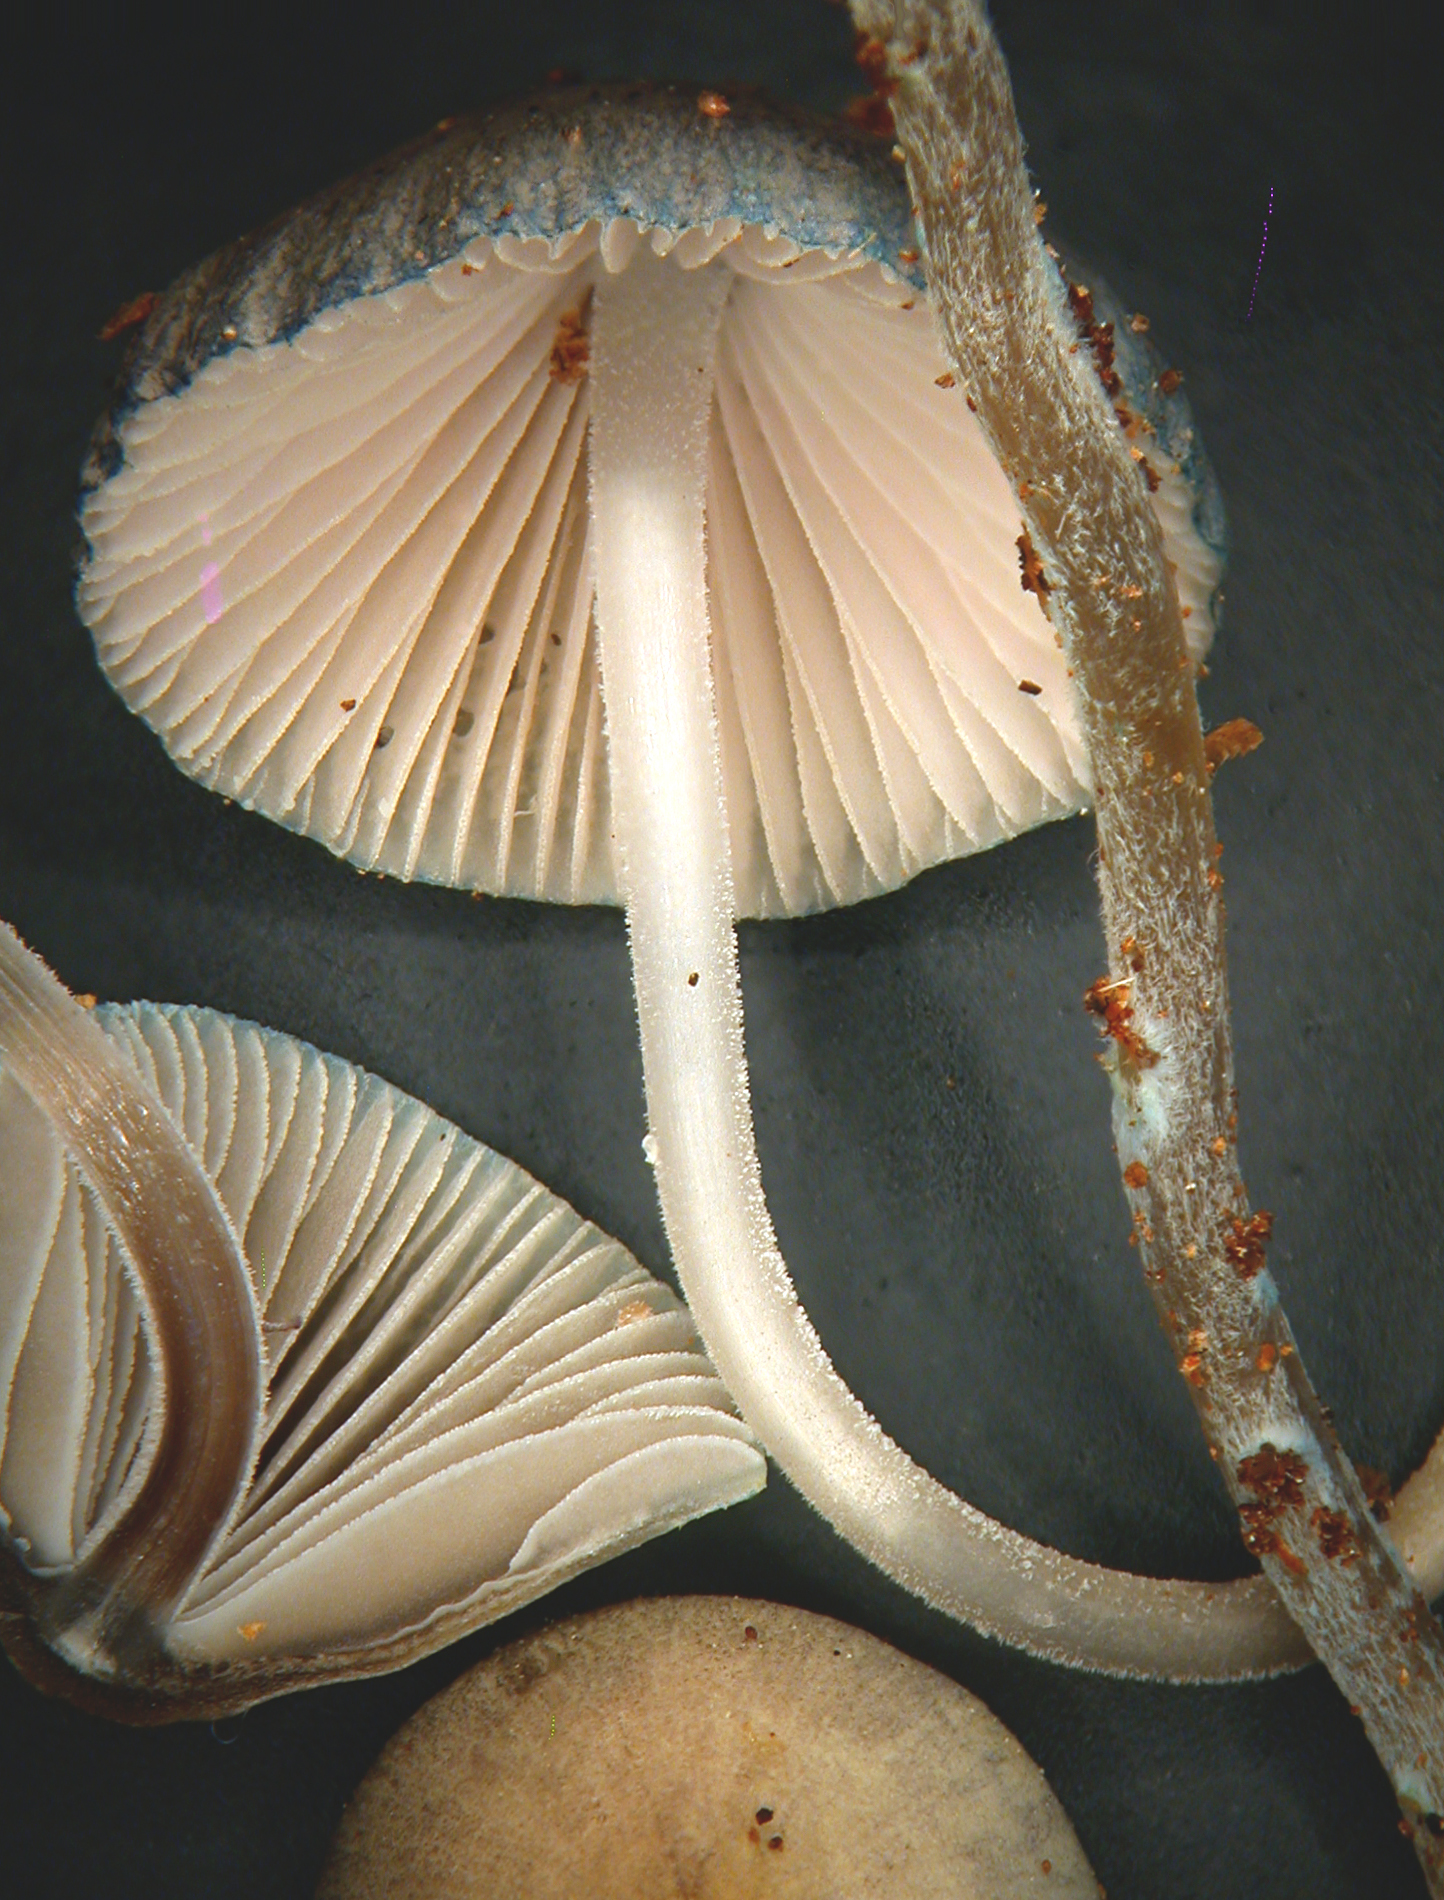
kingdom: Fungi
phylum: Basidiomycota
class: Agaricomycetes
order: Agaricales
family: Mycenaceae
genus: Mycena
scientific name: Mycena amicta
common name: Coldfoot bonnet
